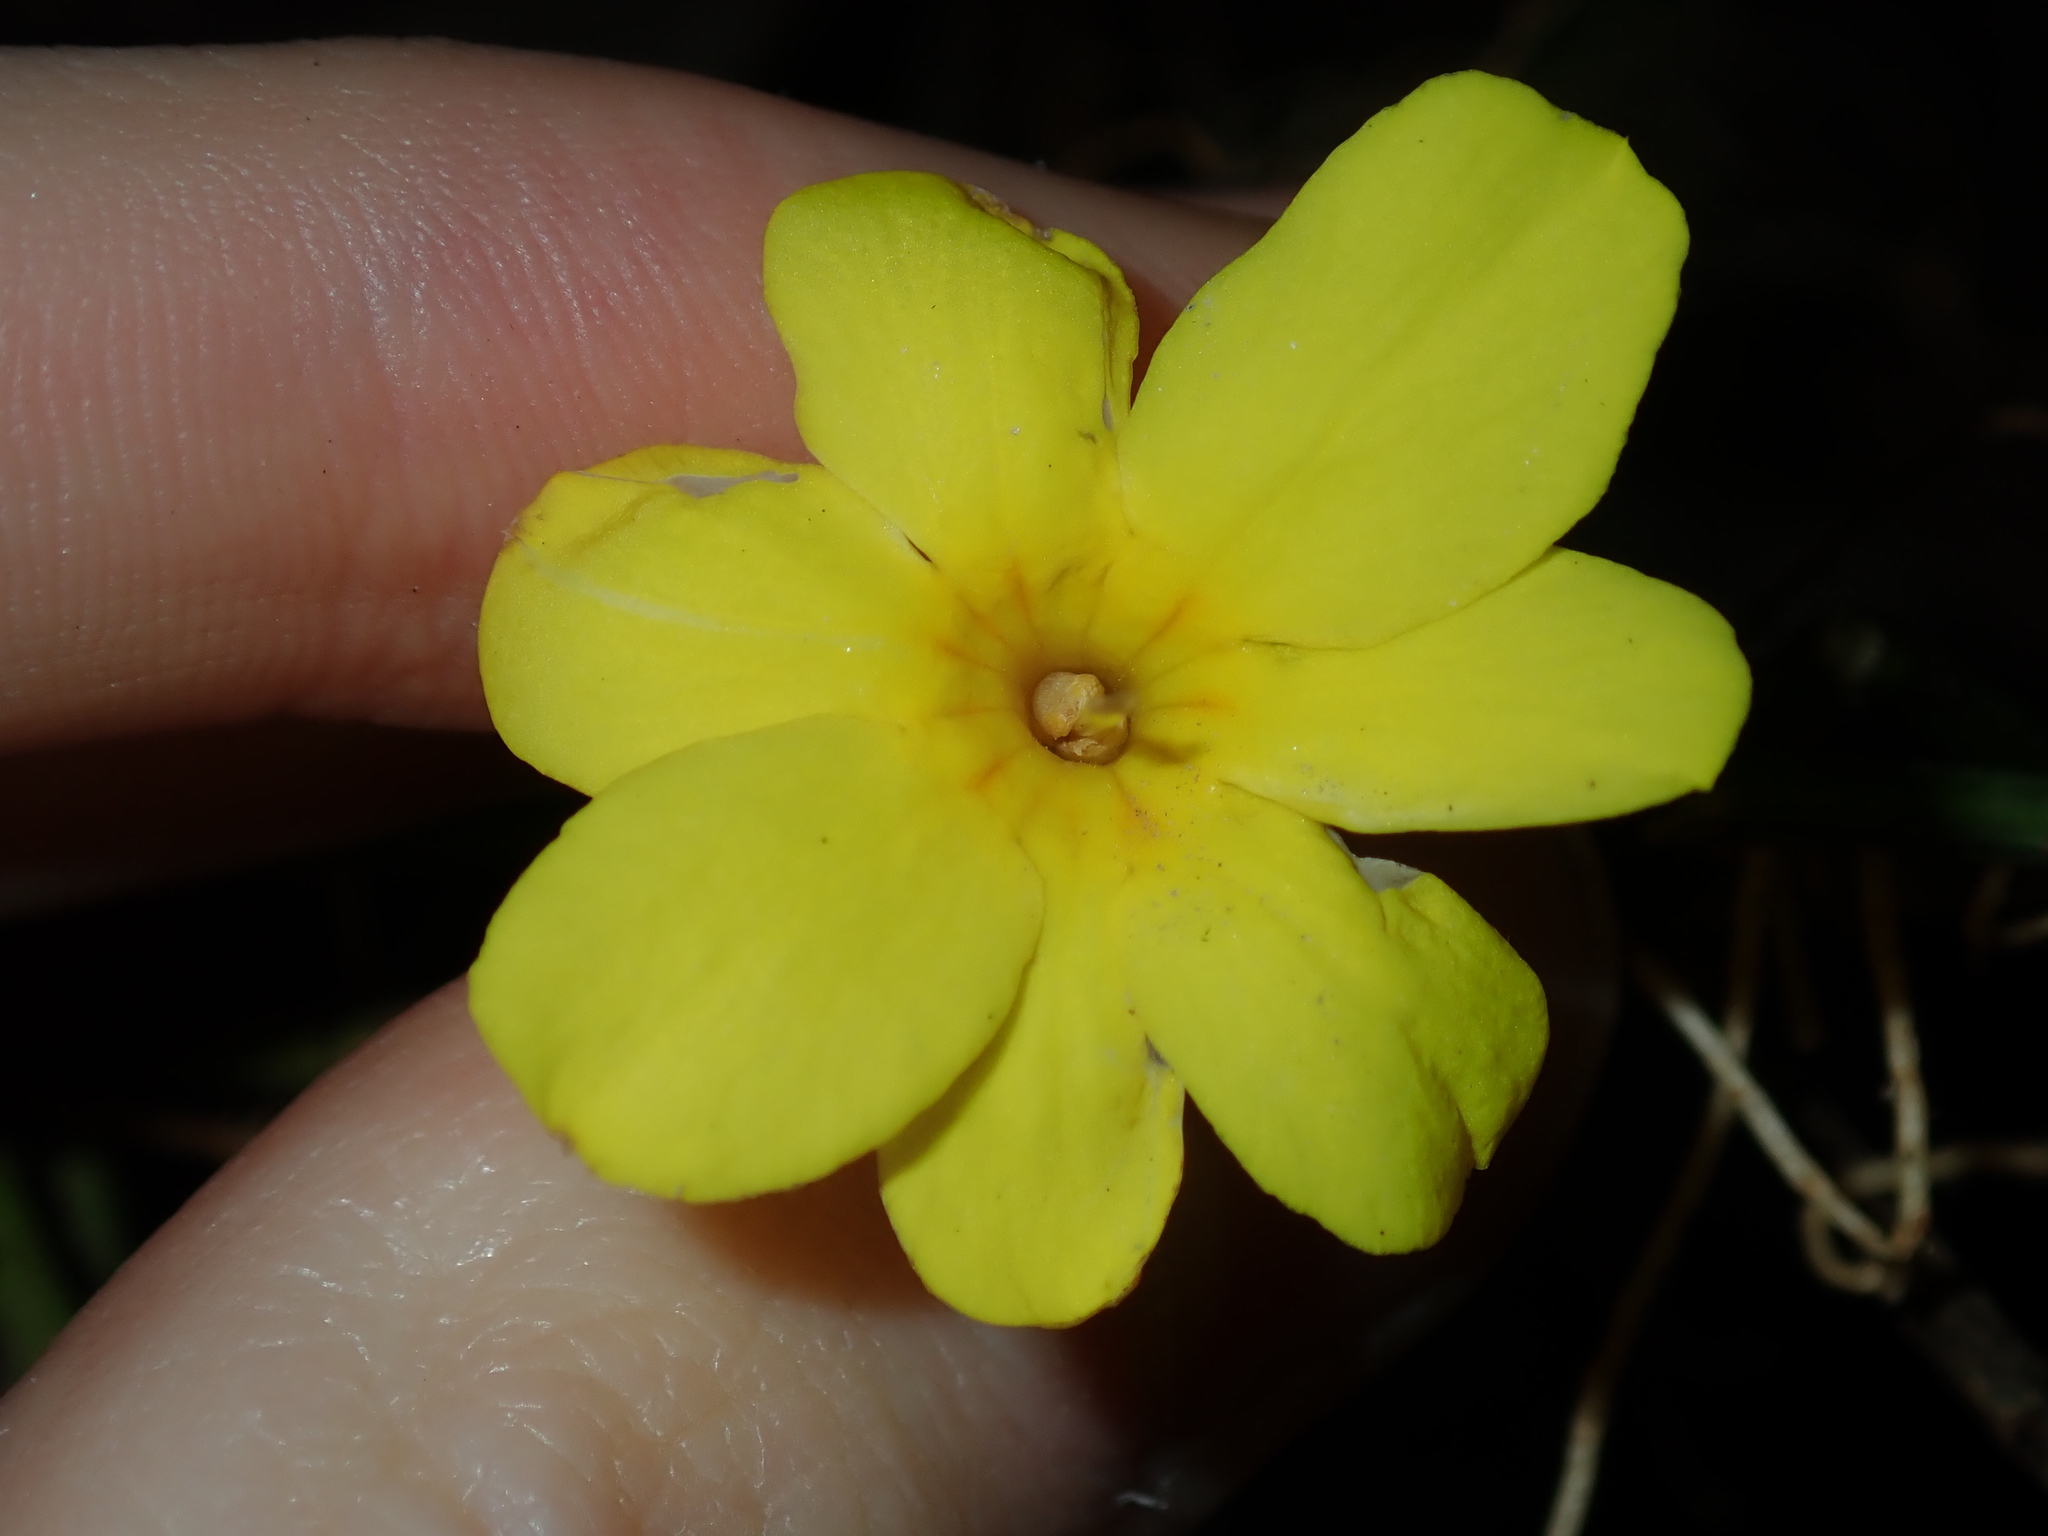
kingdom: Plantae
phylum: Tracheophyta
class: Magnoliopsida
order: Lamiales
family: Oleaceae
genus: Jasminum
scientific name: Jasminum mesnyi
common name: Japanese jasmine
